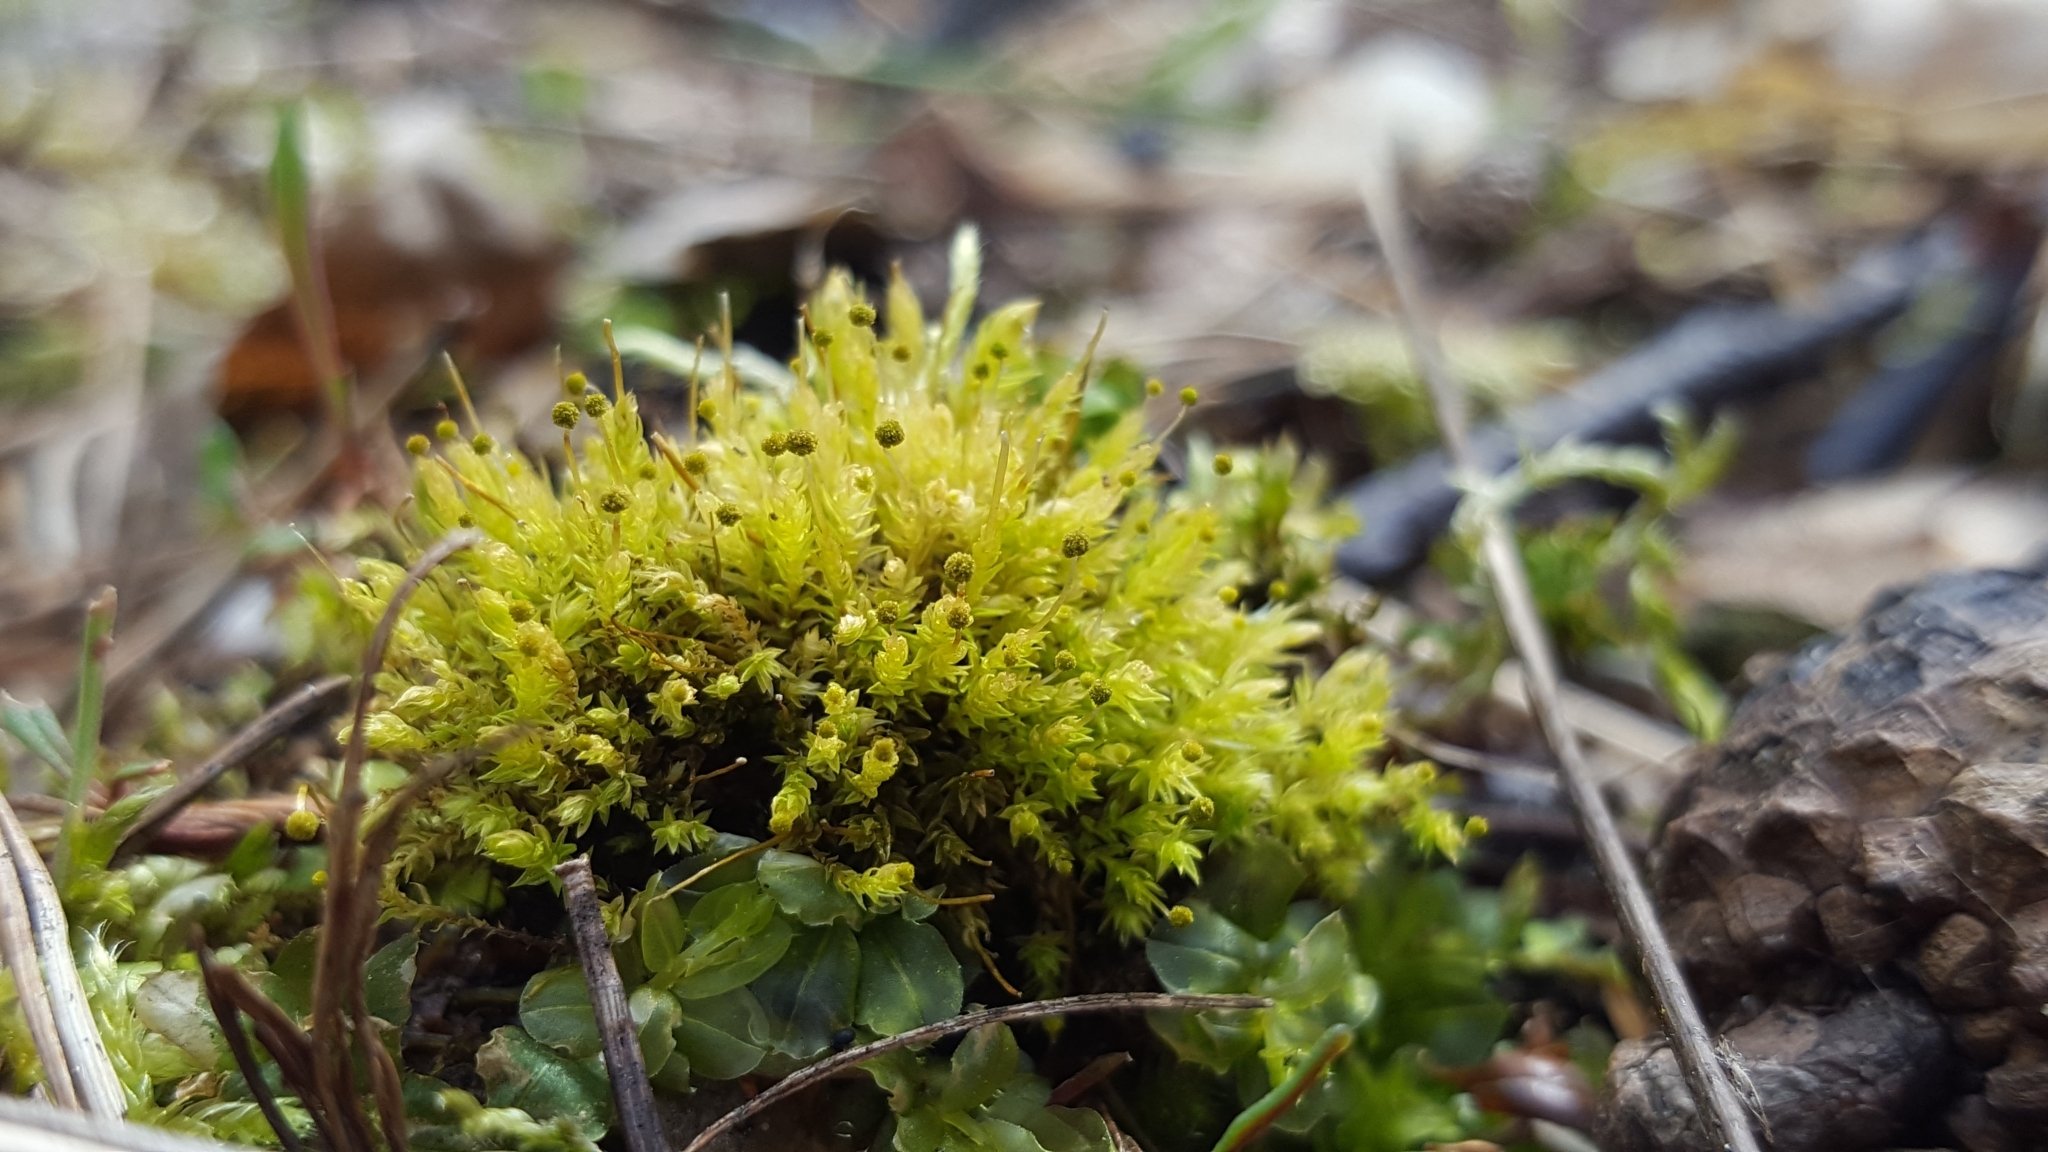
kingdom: Plantae
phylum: Bryophyta
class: Bryopsida
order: Aulacomniales
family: Aulacomniaceae
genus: Aulacomnium
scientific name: Aulacomnium androgynum
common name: Little groove moss
